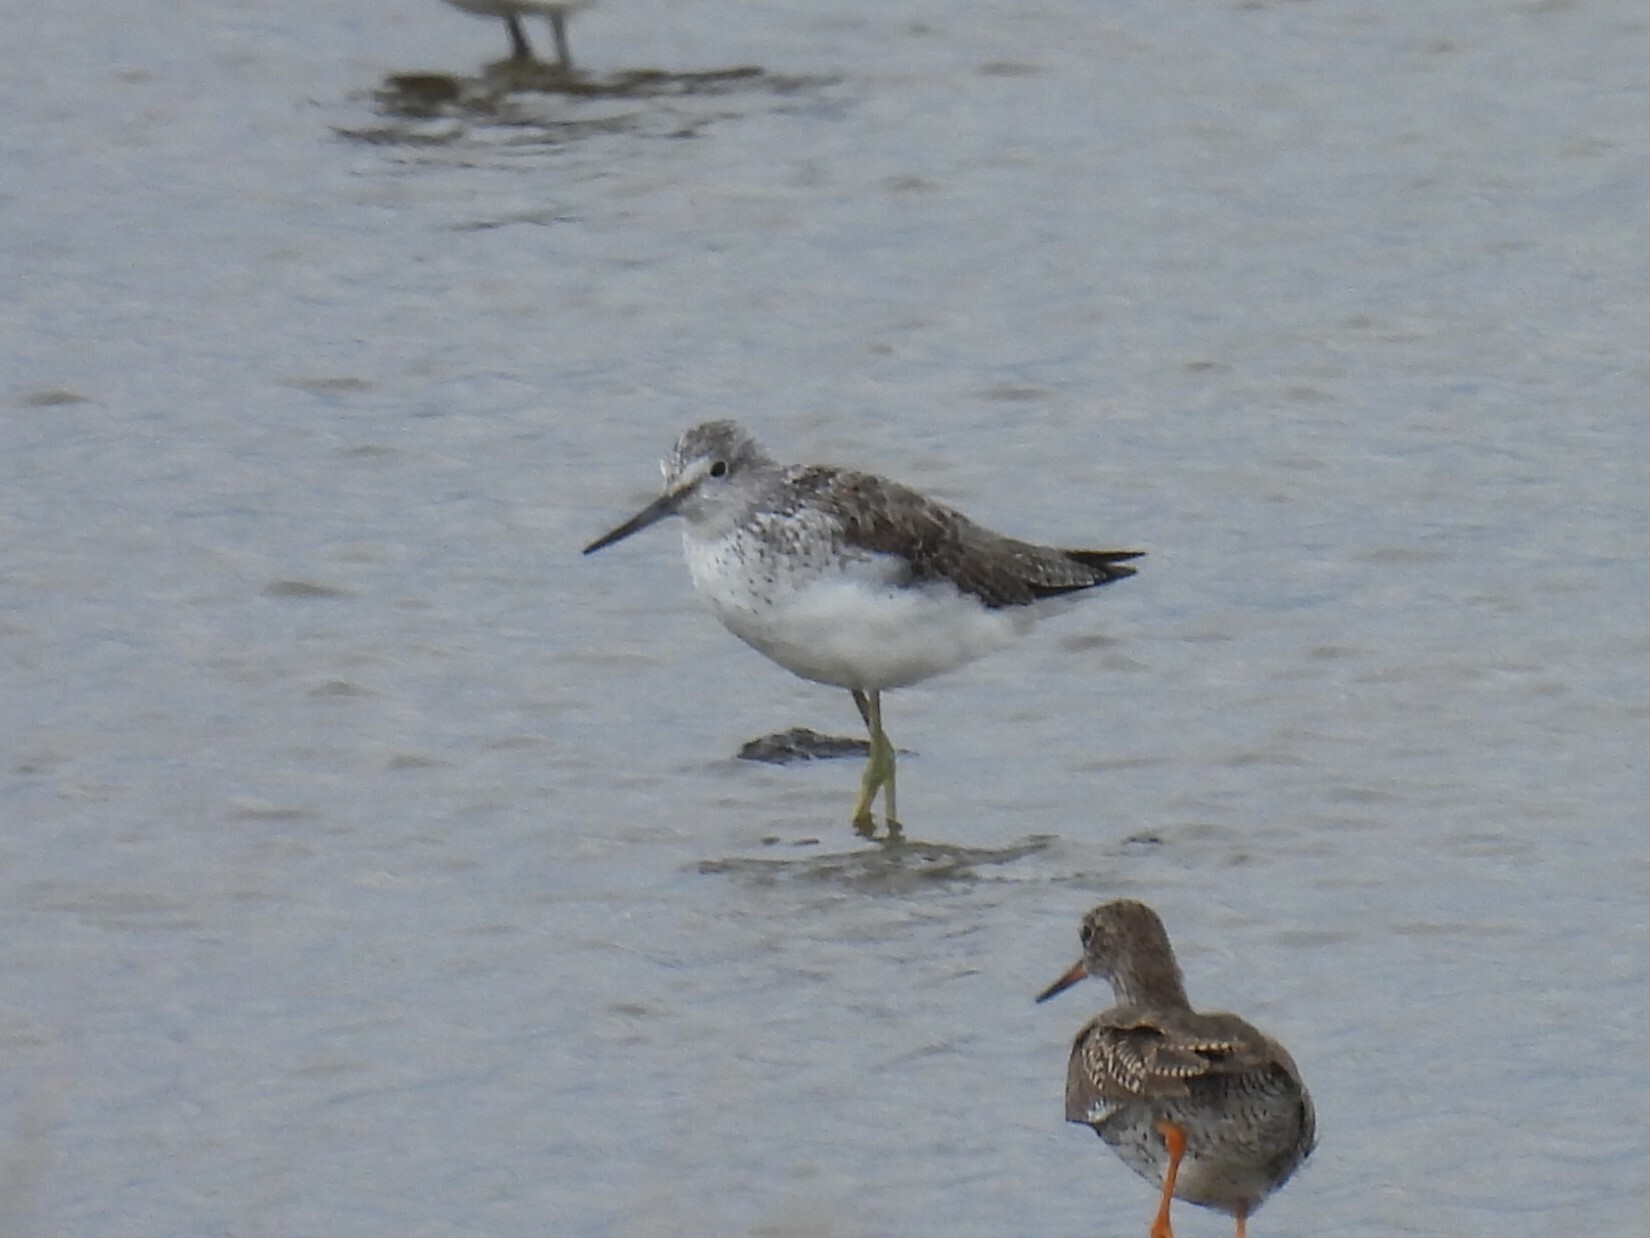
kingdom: Animalia
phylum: Chordata
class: Aves
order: Charadriiformes
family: Scolopacidae
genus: Tringa
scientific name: Tringa nebularia
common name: Common greenshank
